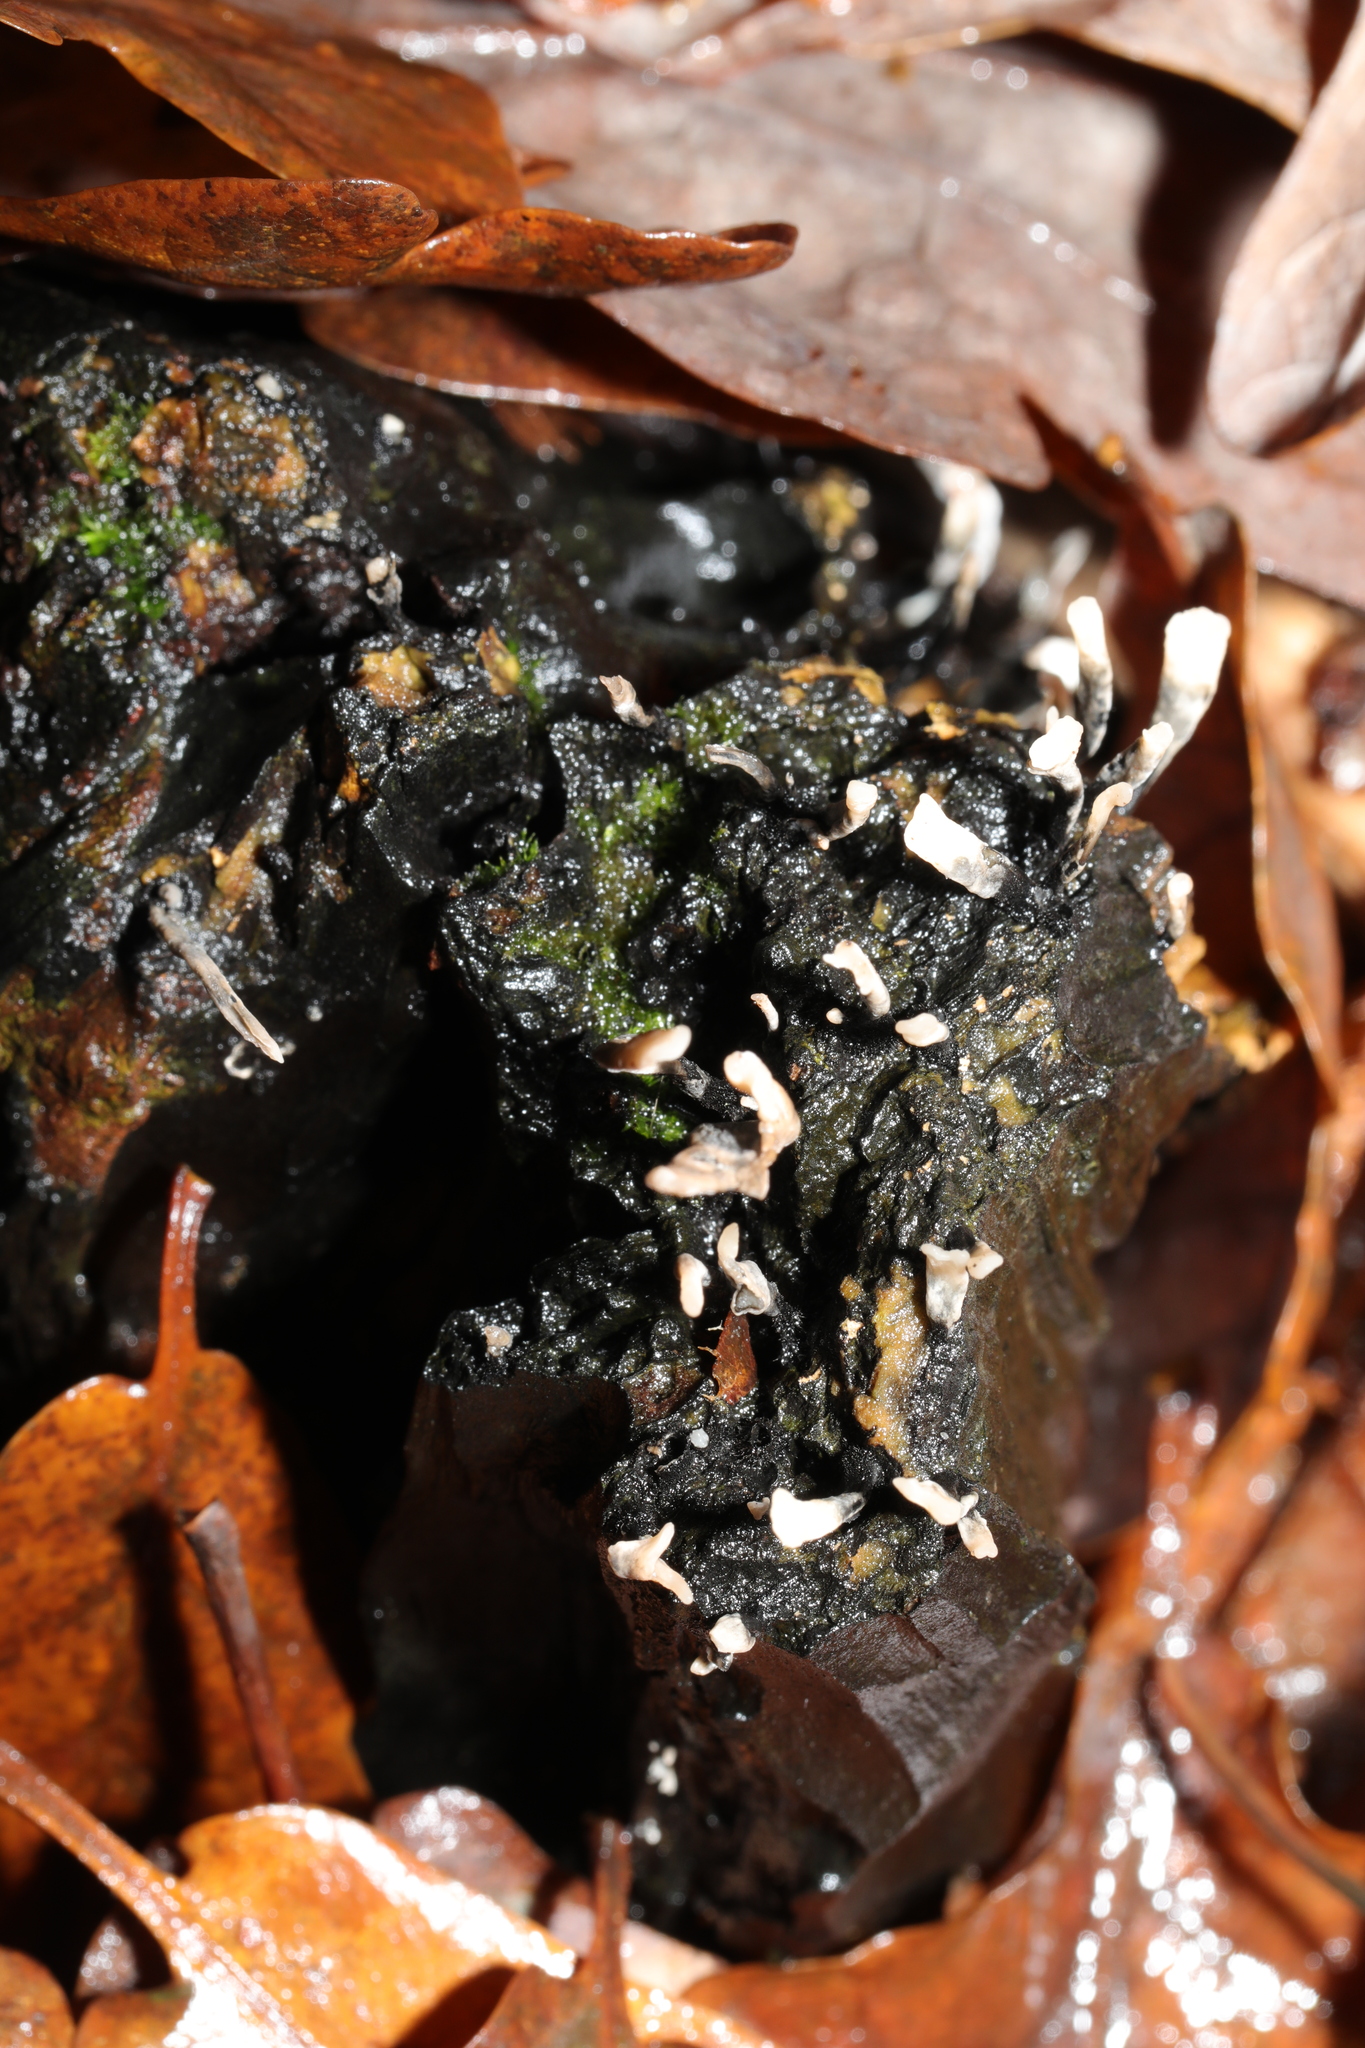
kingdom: Fungi
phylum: Ascomycota
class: Sordariomycetes
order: Xylariales
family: Xylariaceae
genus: Xylaria
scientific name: Xylaria hypoxylon
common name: Candle-snuff fungus
